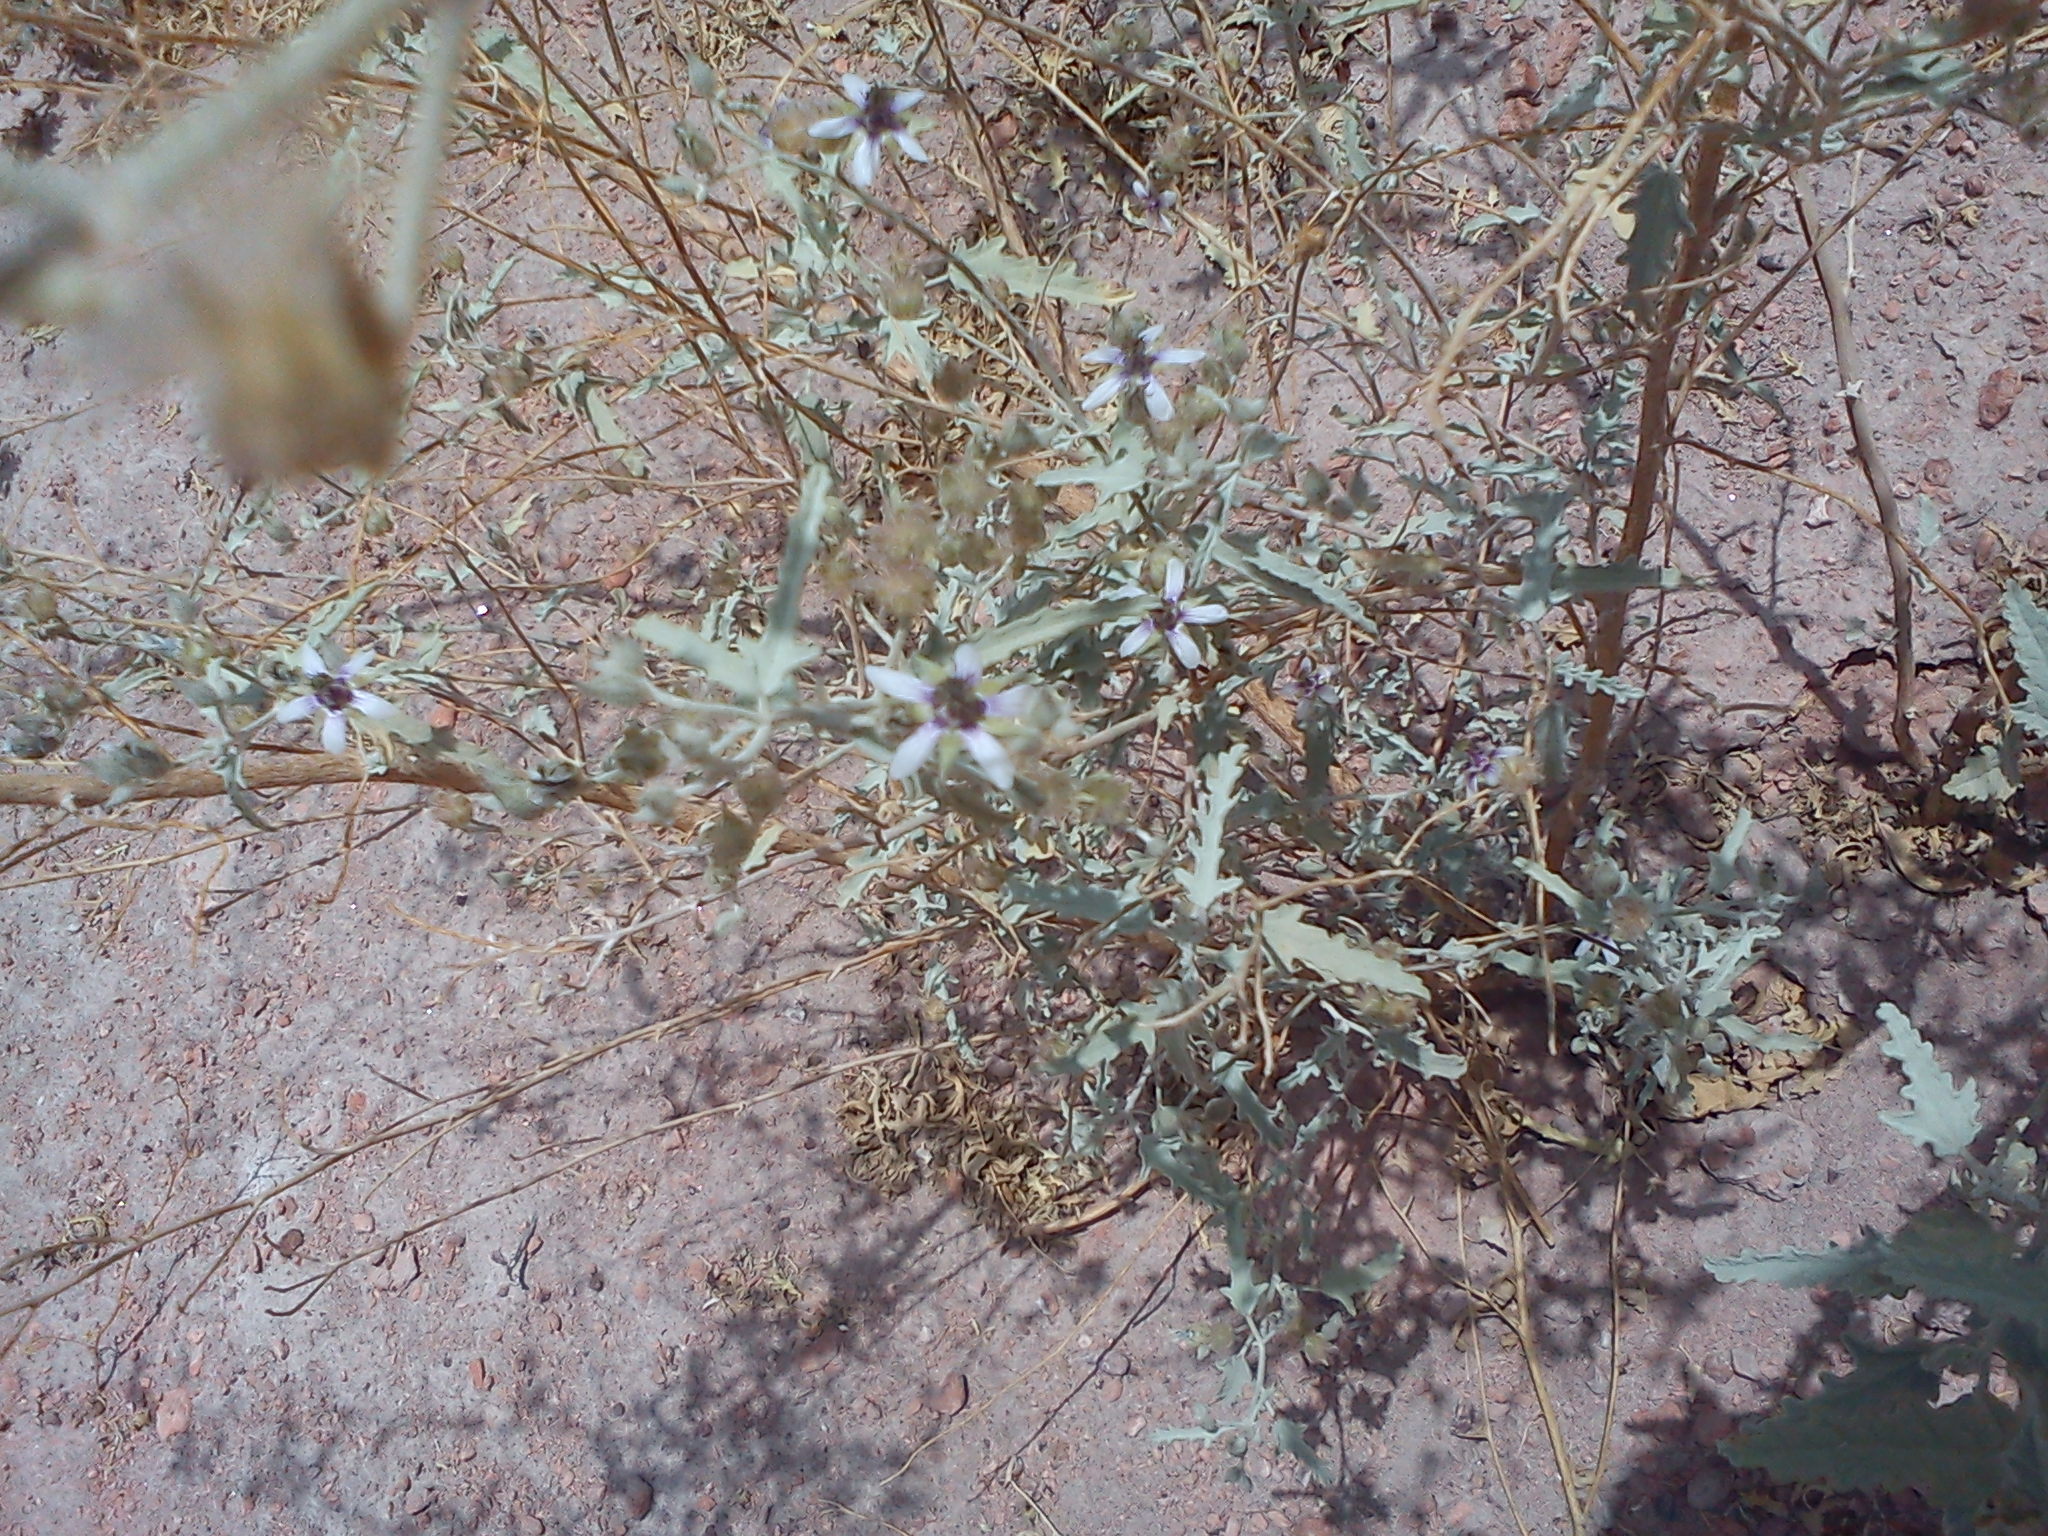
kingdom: Plantae
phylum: Tracheophyta
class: Magnoliopsida
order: Malvales
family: Malvaceae
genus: Tarasa
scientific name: Tarasa operculata
